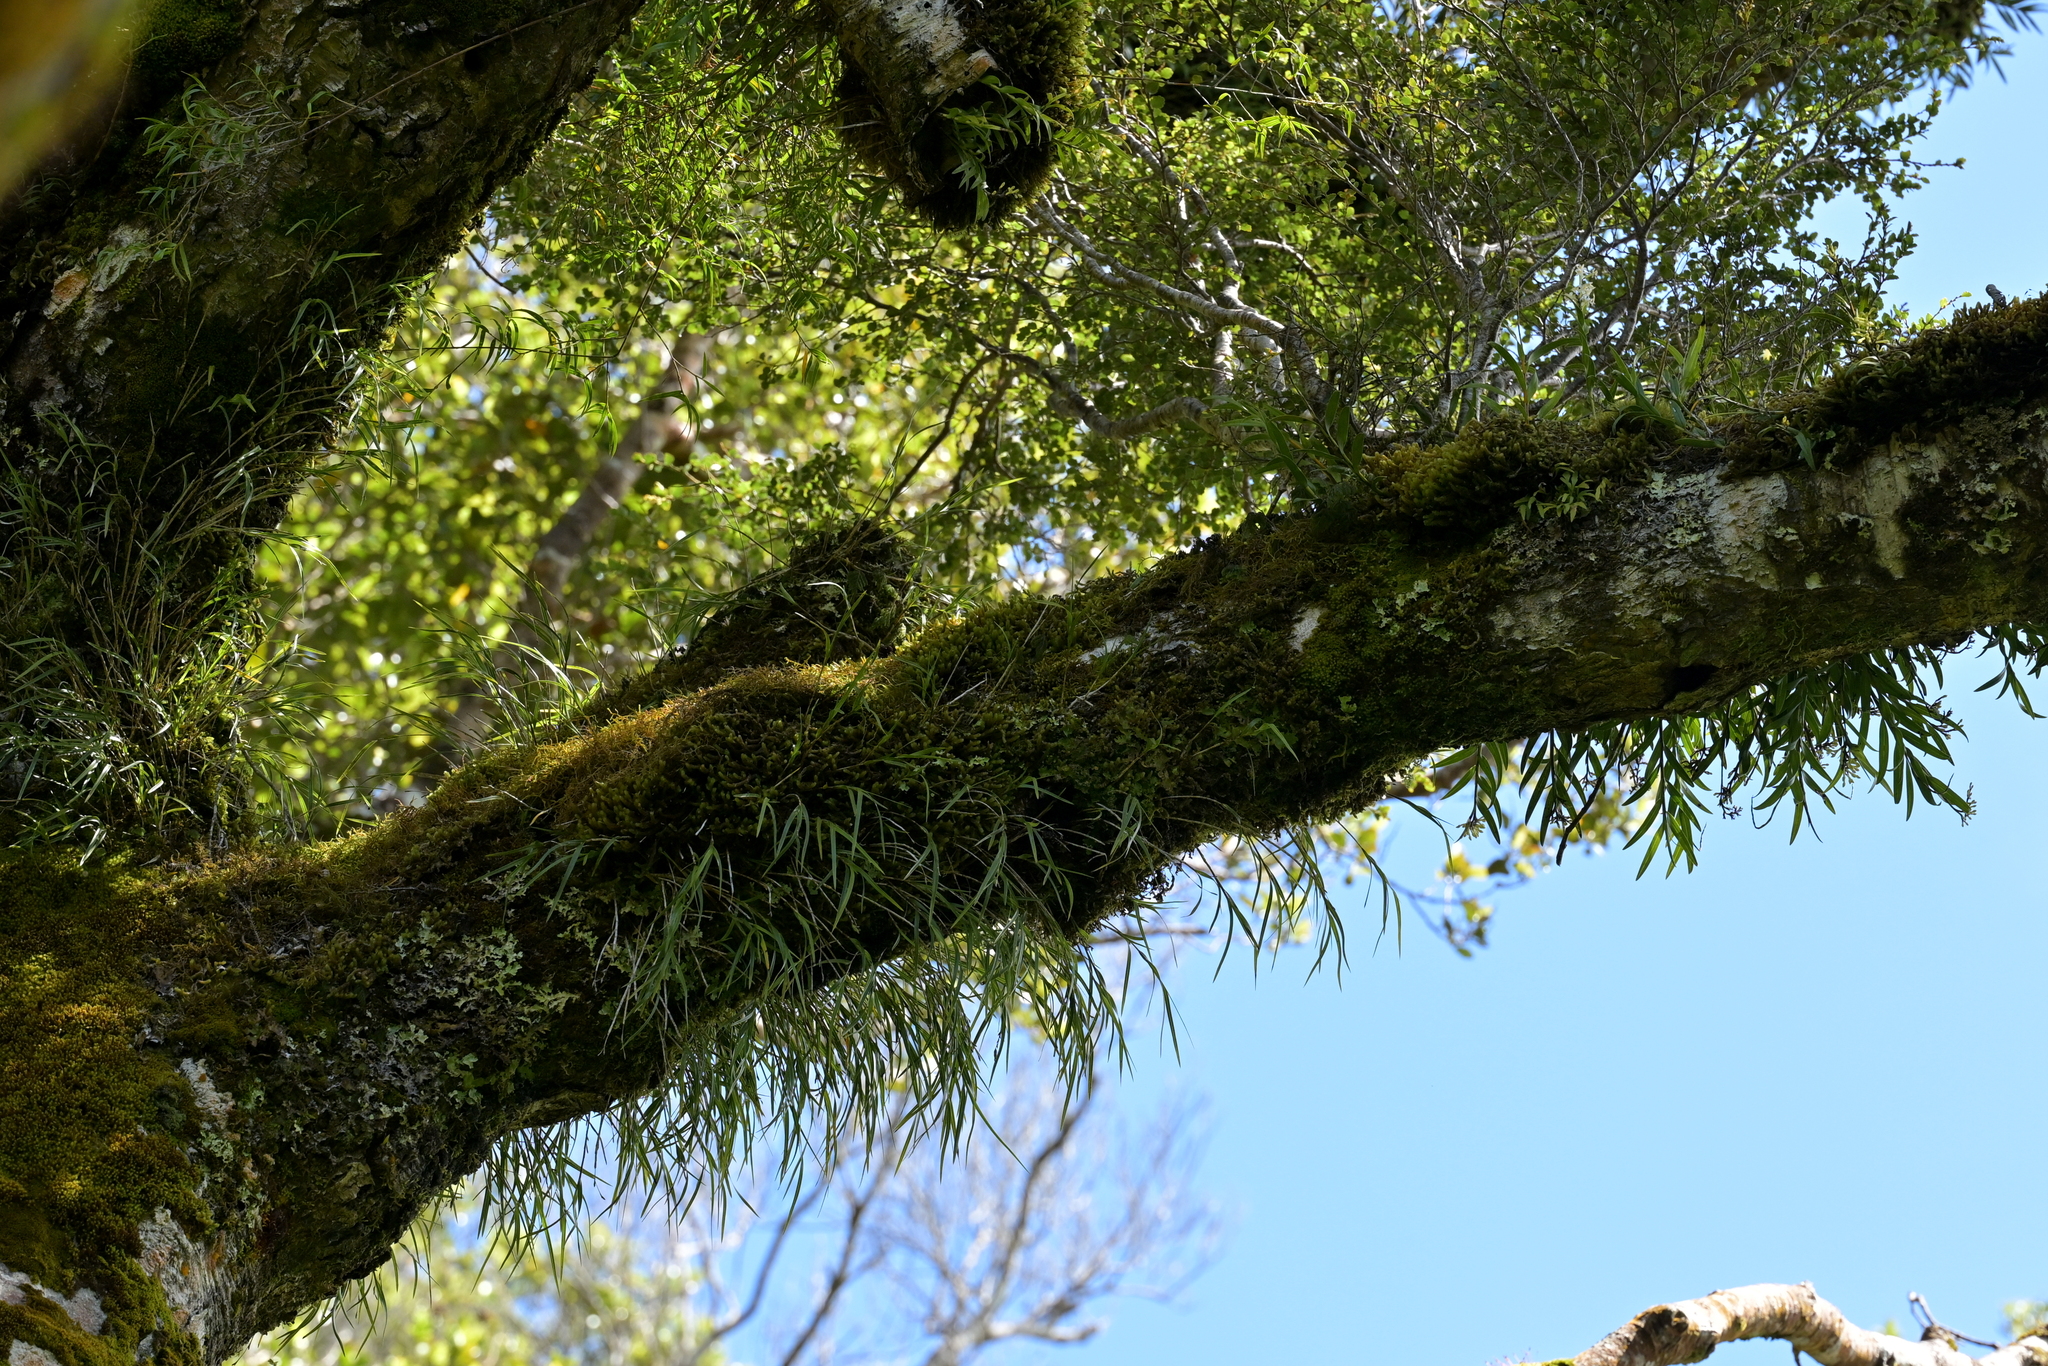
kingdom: Plantae
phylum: Tracheophyta
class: Liliopsida
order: Asparagales
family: Orchidaceae
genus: Earina
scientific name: Earina mucronata
